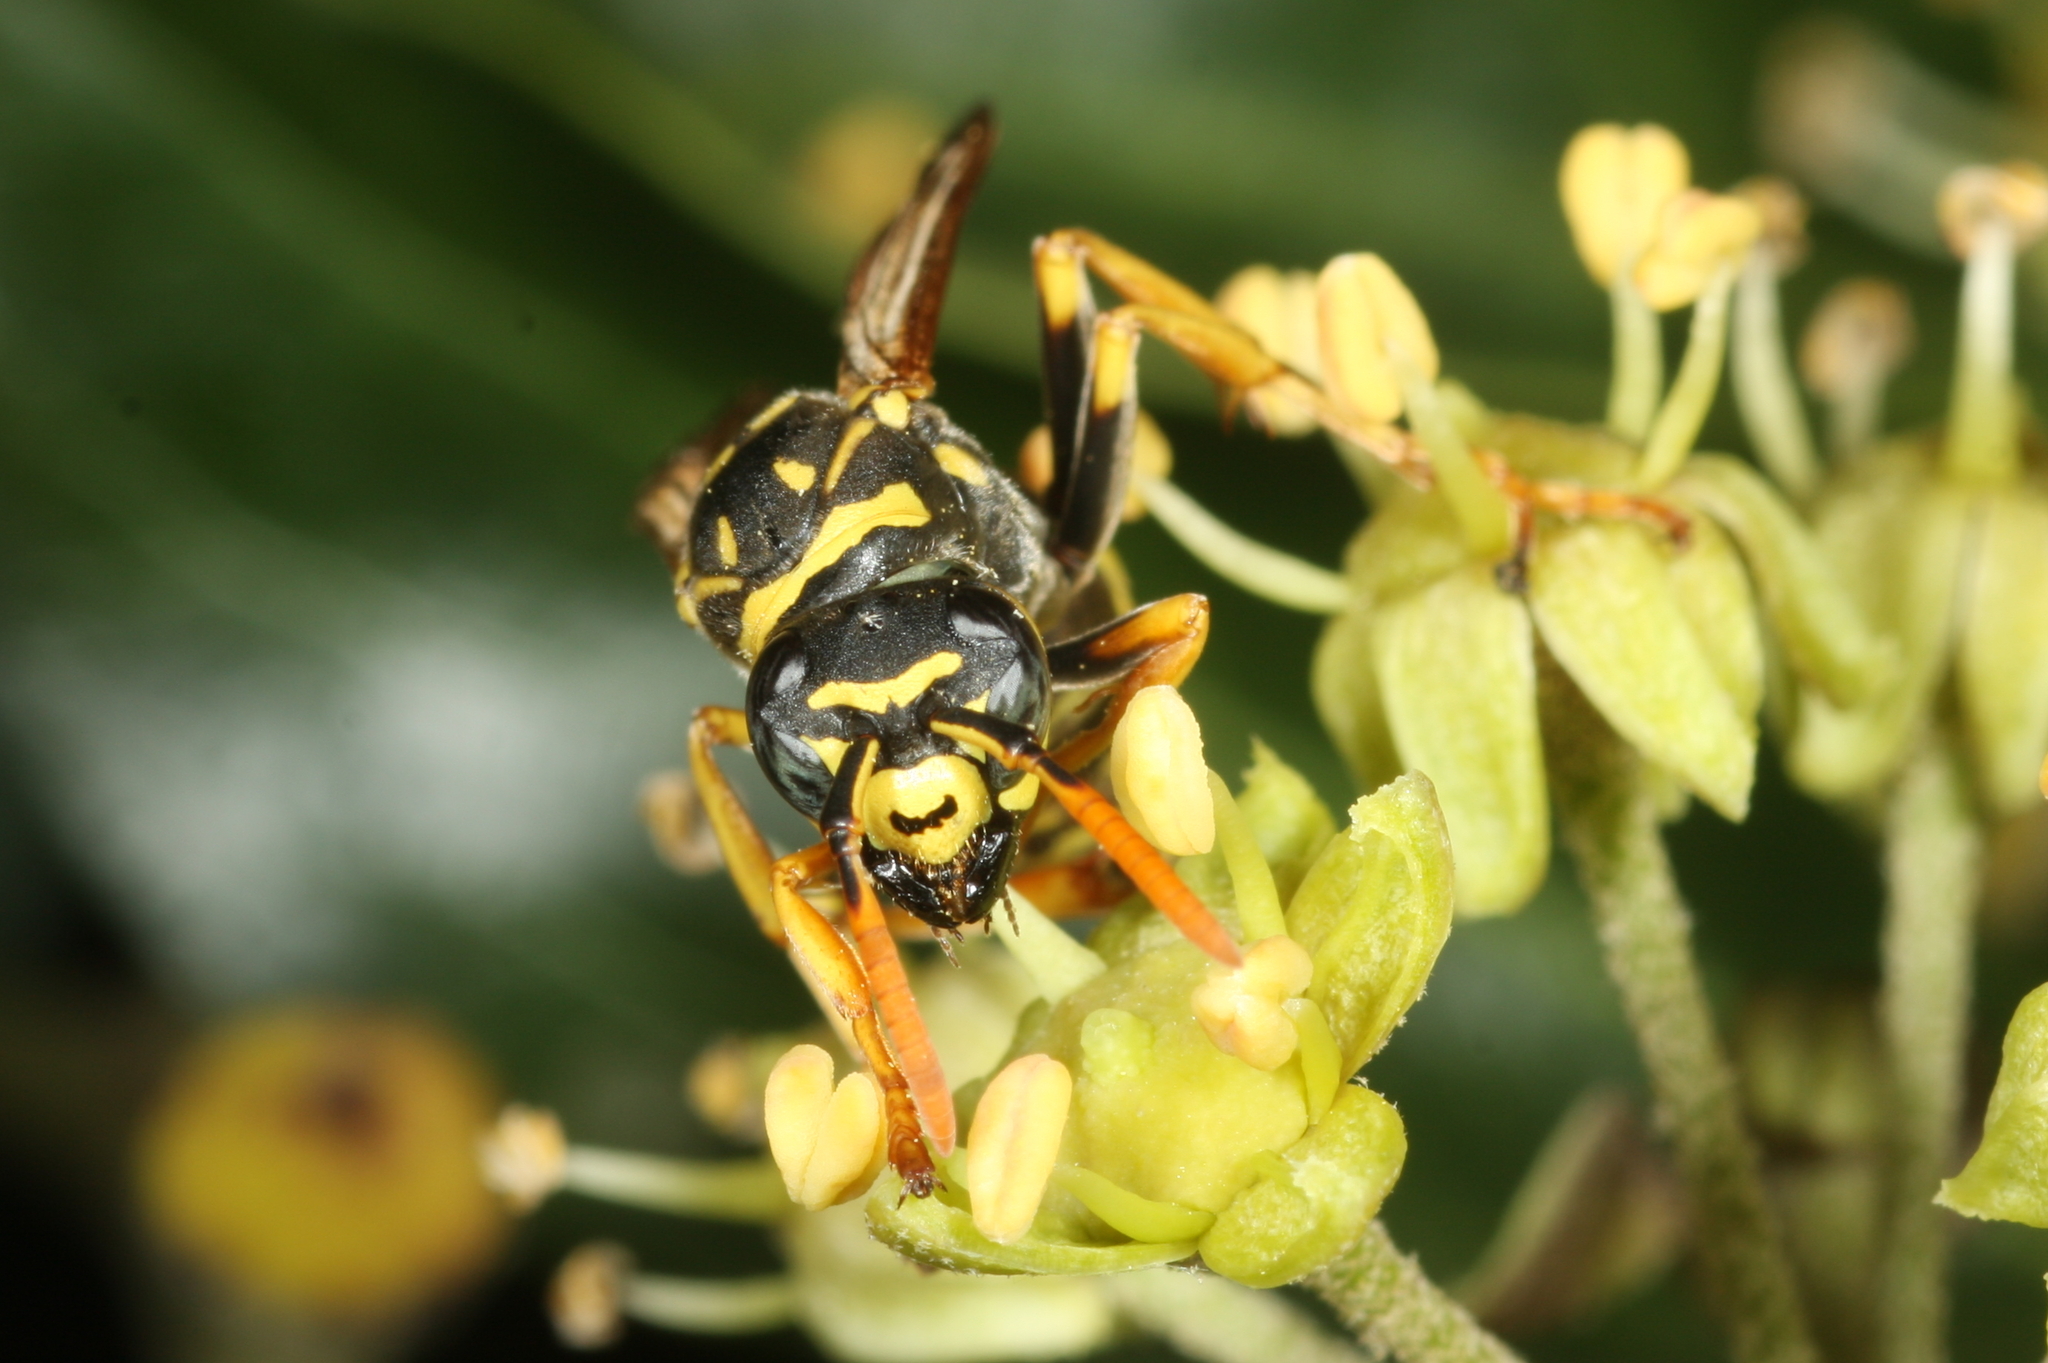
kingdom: Animalia
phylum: Arthropoda
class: Insecta
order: Hymenoptera
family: Eumenidae
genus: Polistes
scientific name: Polistes dominula
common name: Paper wasp
